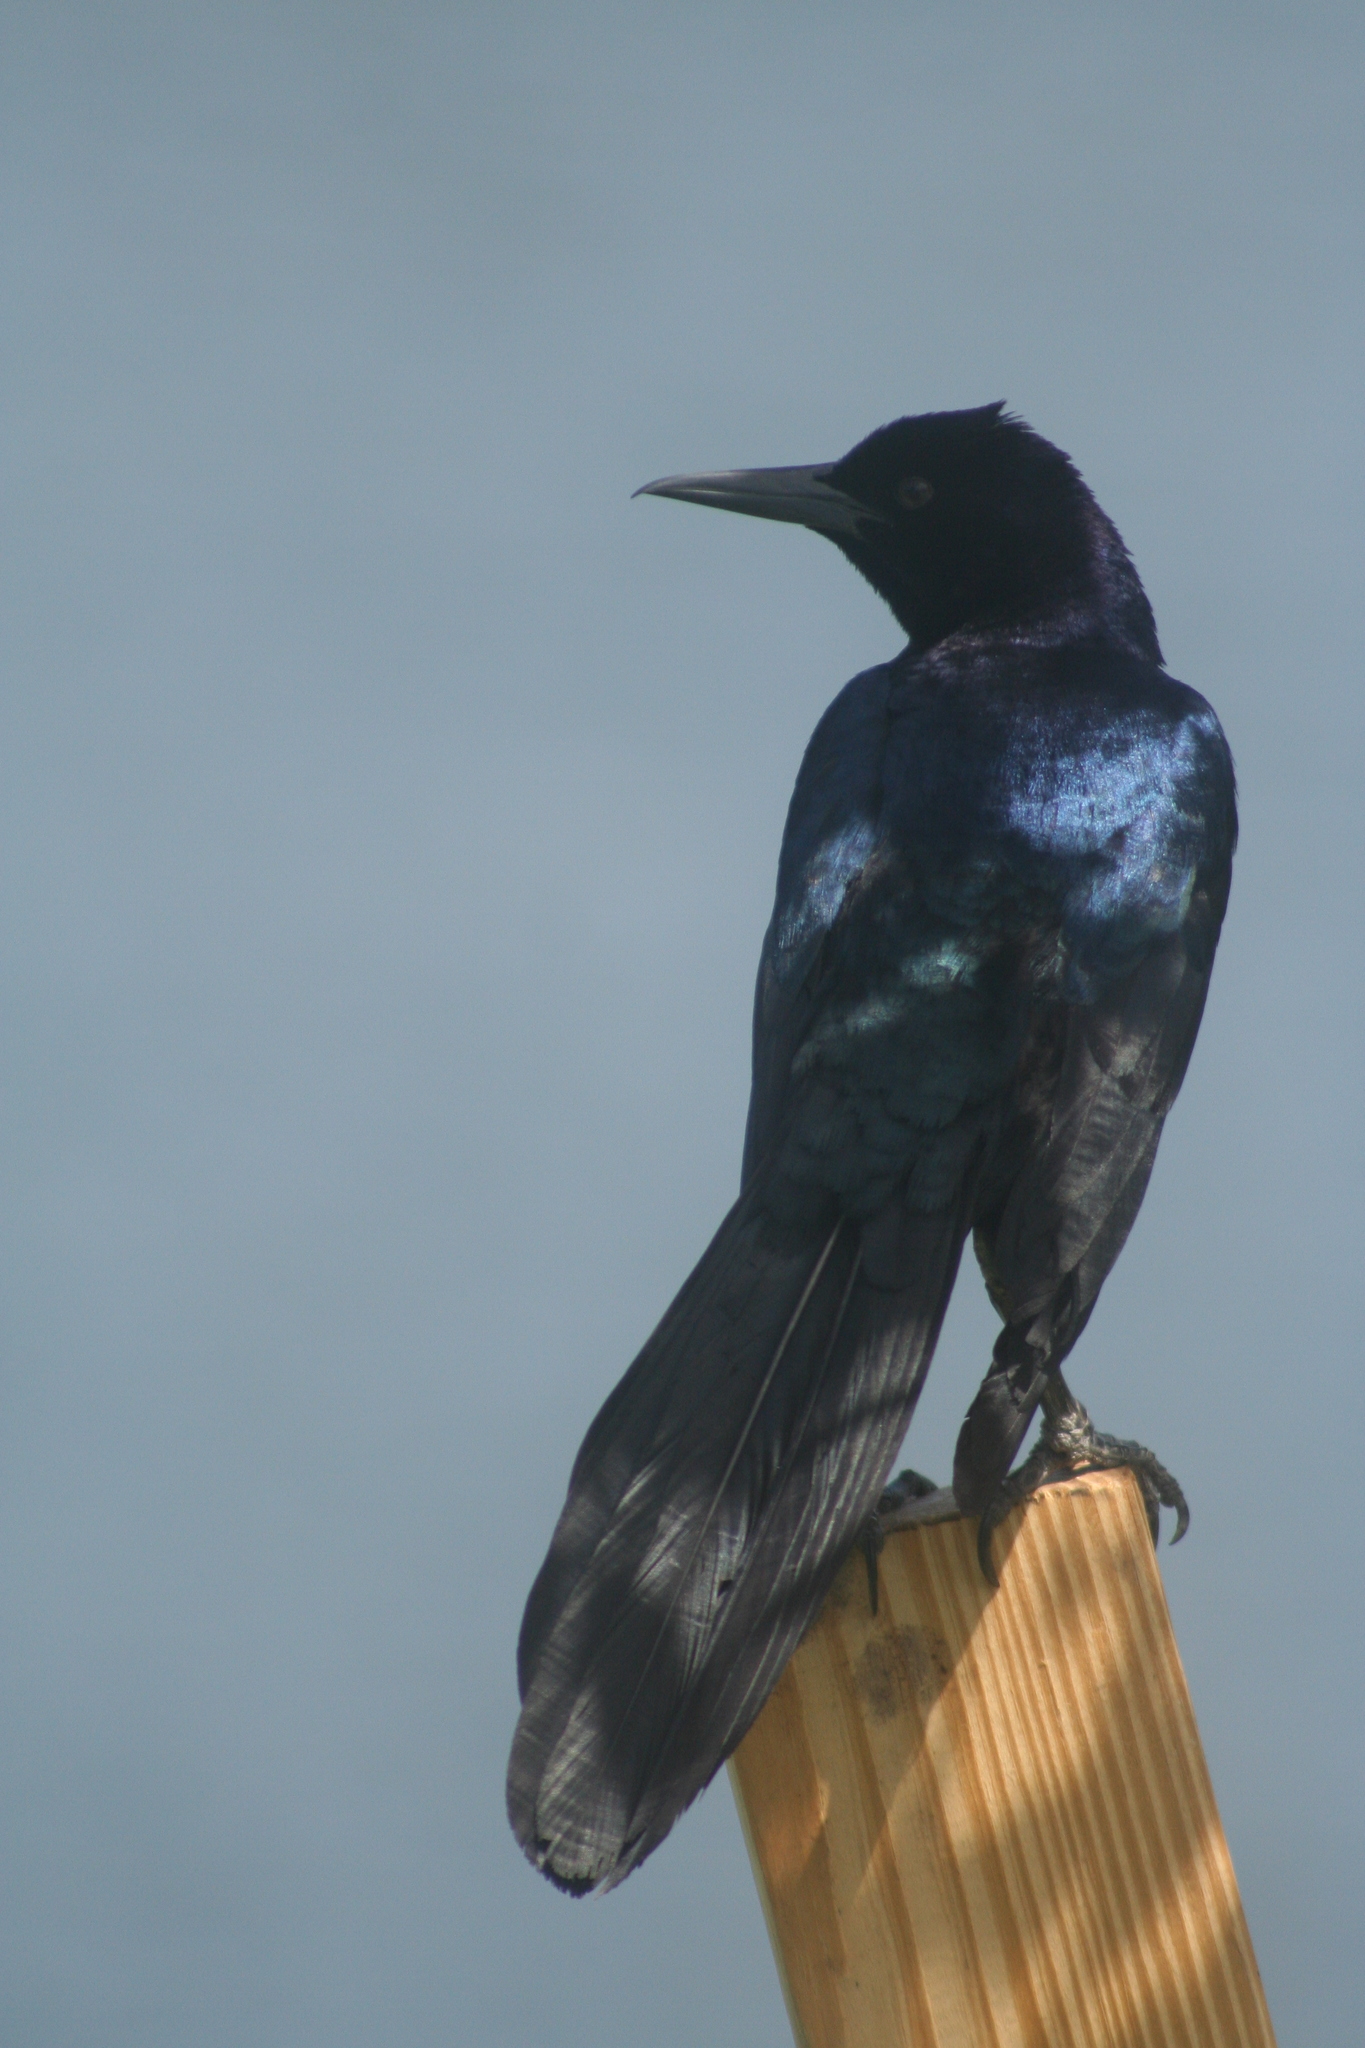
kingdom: Animalia
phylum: Chordata
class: Aves
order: Passeriformes
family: Icteridae
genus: Quiscalus
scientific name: Quiscalus major
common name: Boat-tailed grackle
